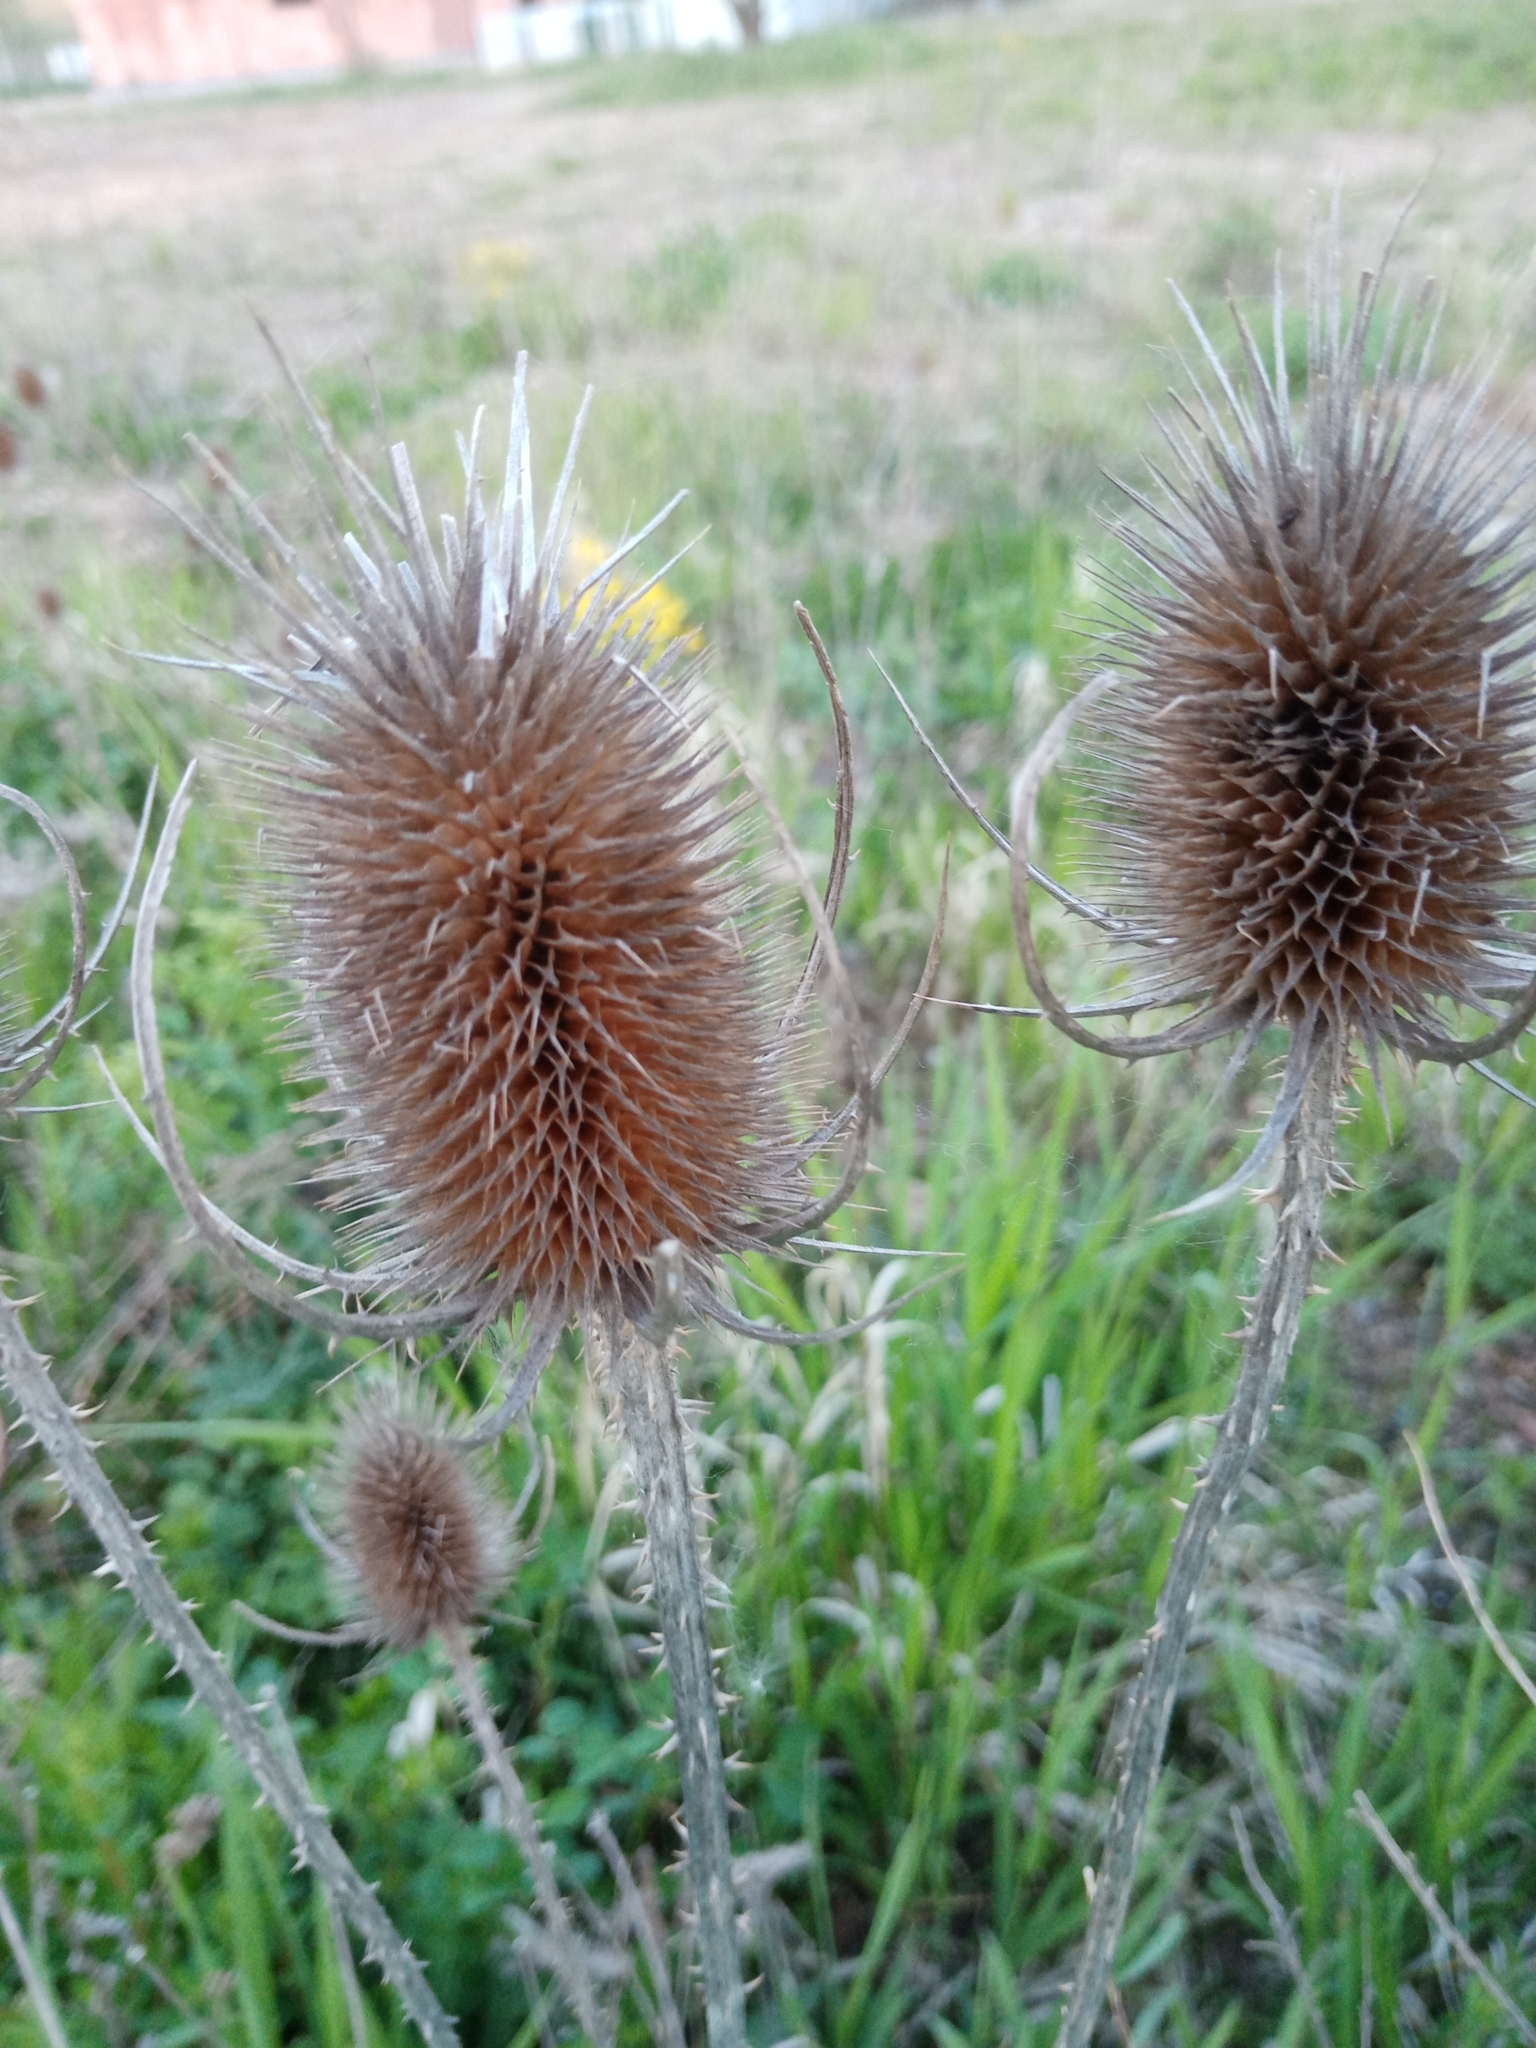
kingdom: Plantae
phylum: Tracheophyta
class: Magnoliopsida
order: Dipsacales
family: Caprifoliaceae
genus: Dipsacus
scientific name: Dipsacus fullonum
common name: Teasel
